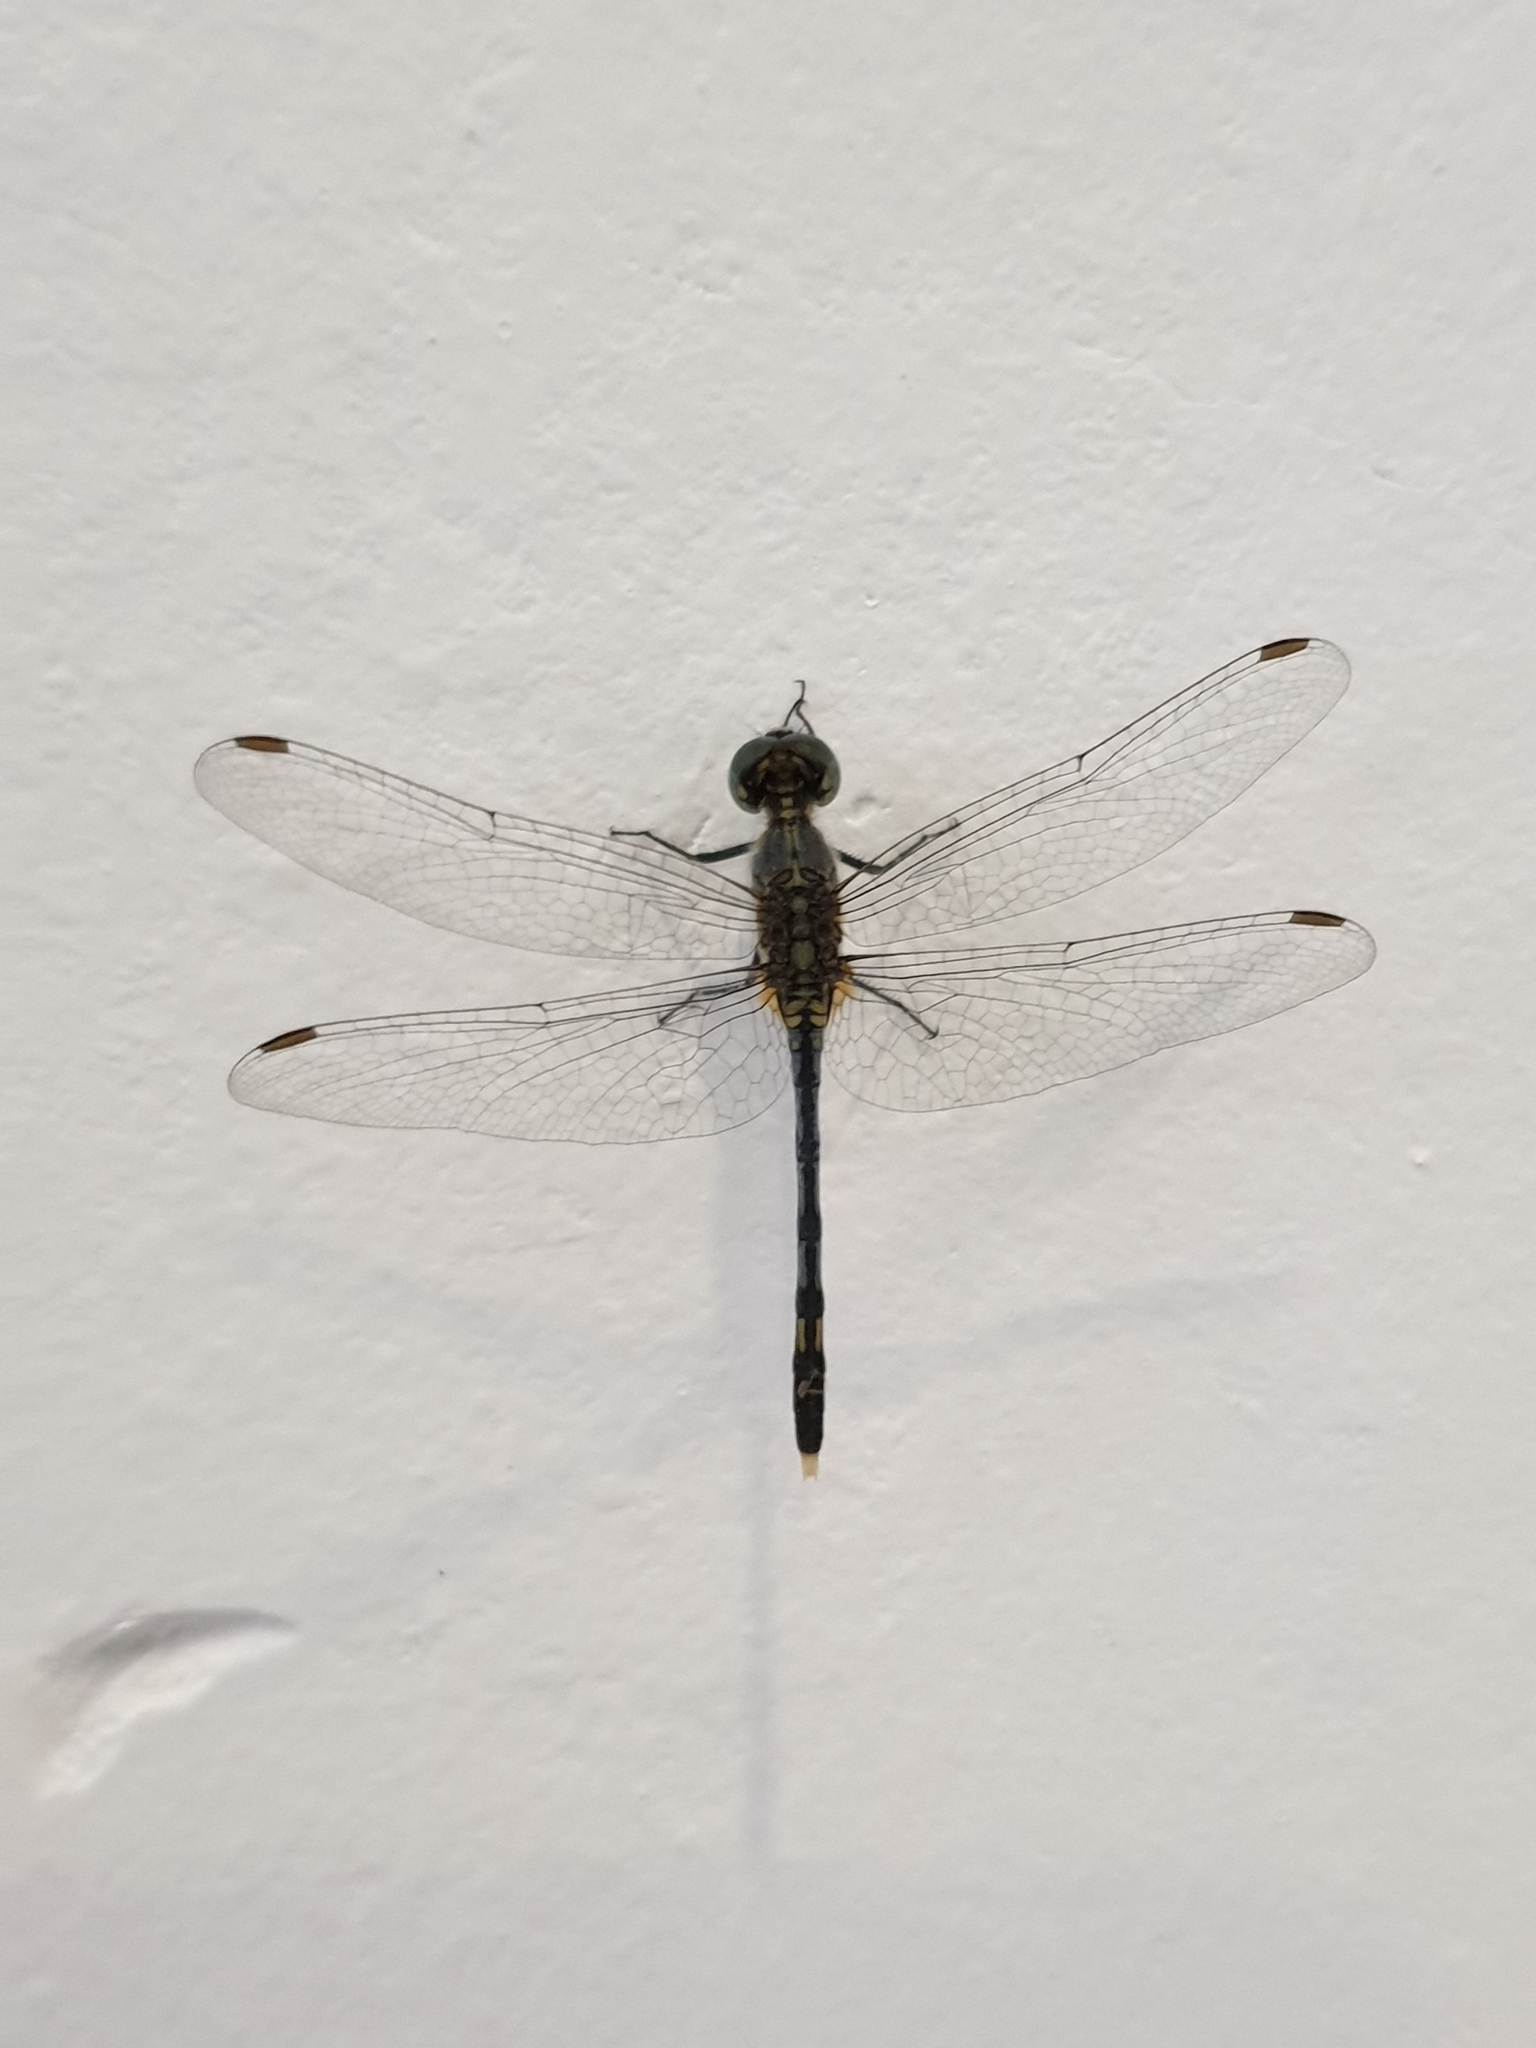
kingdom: Animalia
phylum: Arthropoda
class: Insecta
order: Odonata
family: Libellulidae
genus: Diplacodes
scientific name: Diplacodes trivialis
